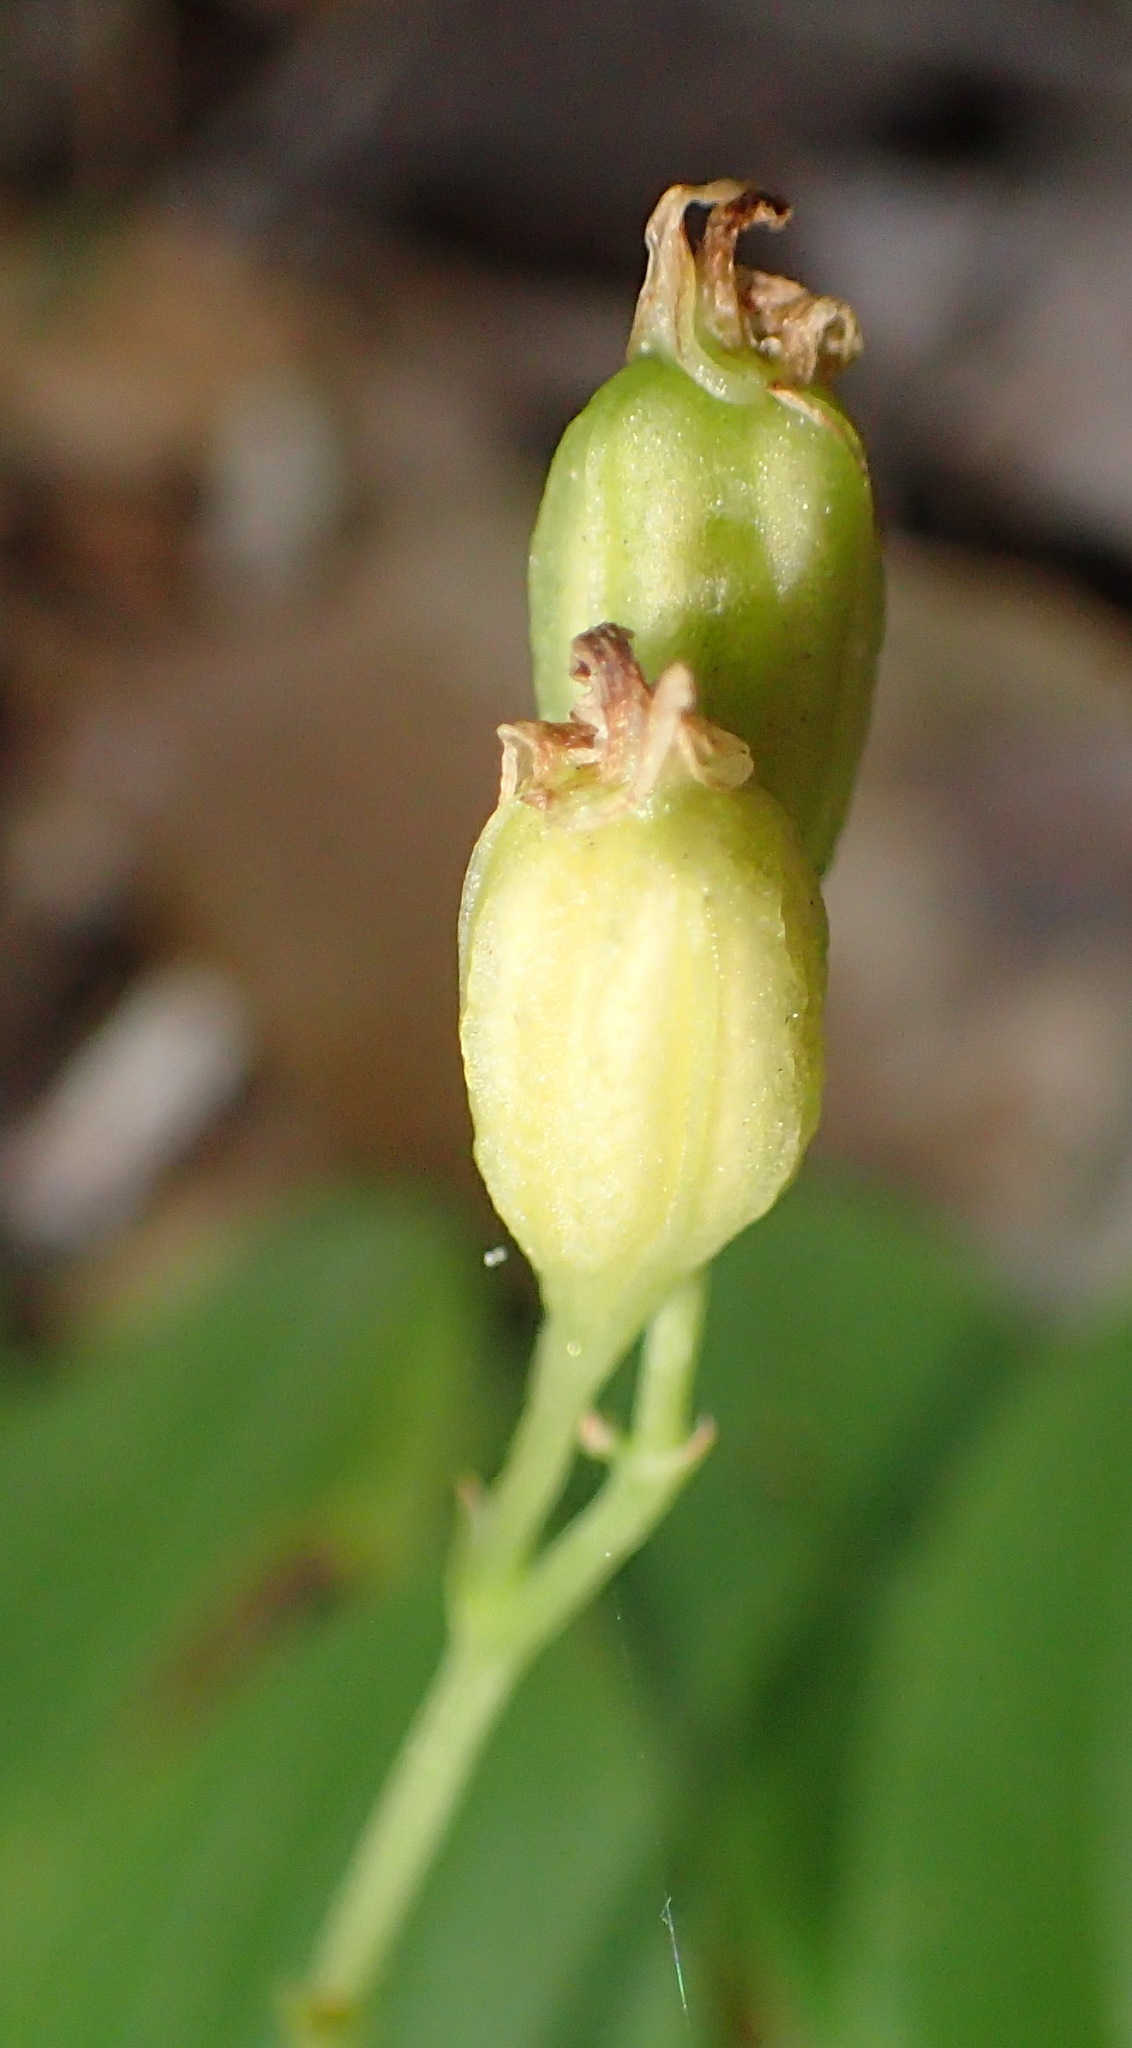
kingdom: Plantae
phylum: Tracheophyta
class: Liliopsida
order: Asparagales
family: Orchidaceae
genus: Liparis
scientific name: Liparis remota
